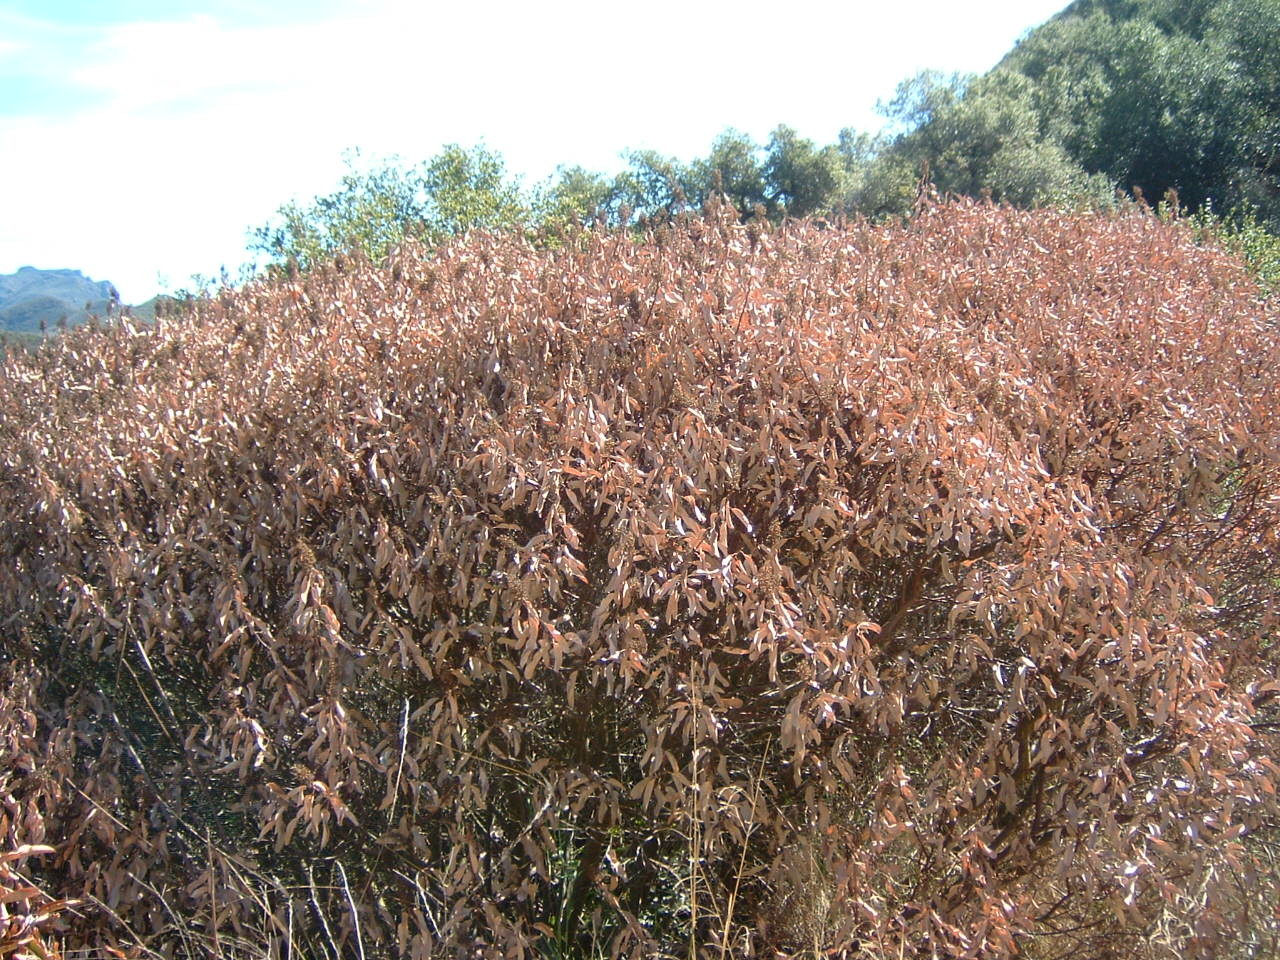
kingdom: Plantae
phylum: Tracheophyta
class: Magnoliopsida
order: Sapindales
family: Anacardiaceae
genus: Malosma
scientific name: Malosma laurina
